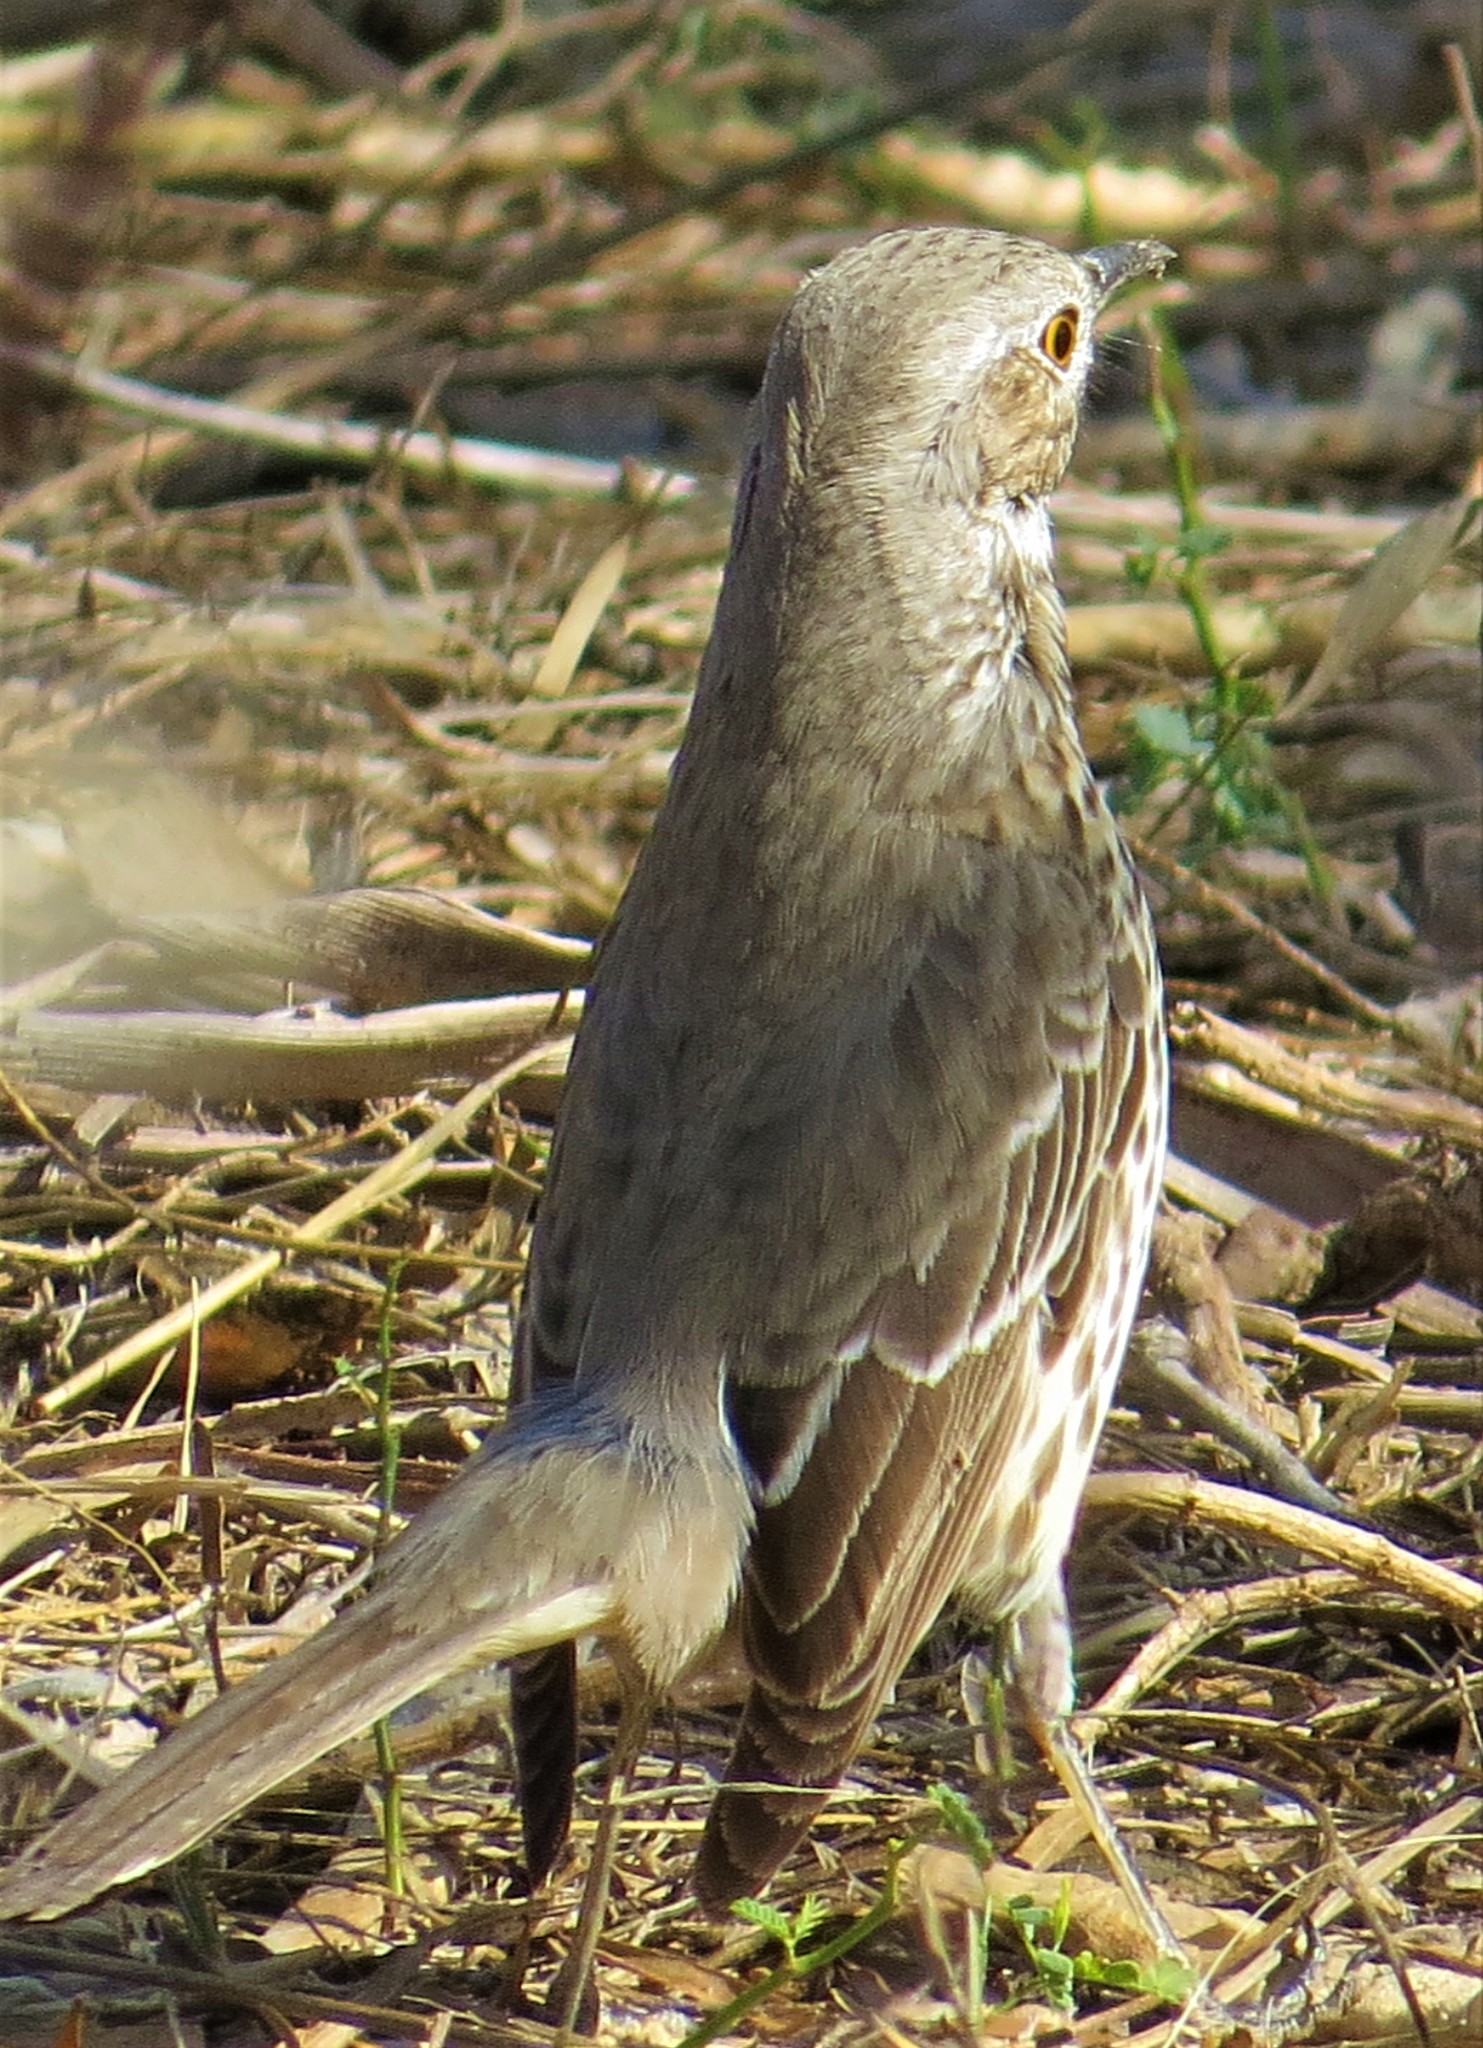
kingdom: Animalia
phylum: Chordata
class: Aves
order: Passeriformes
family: Mimidae
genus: Oreoscoptes
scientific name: Oreoscoptes montanus
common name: Sage thrasher
